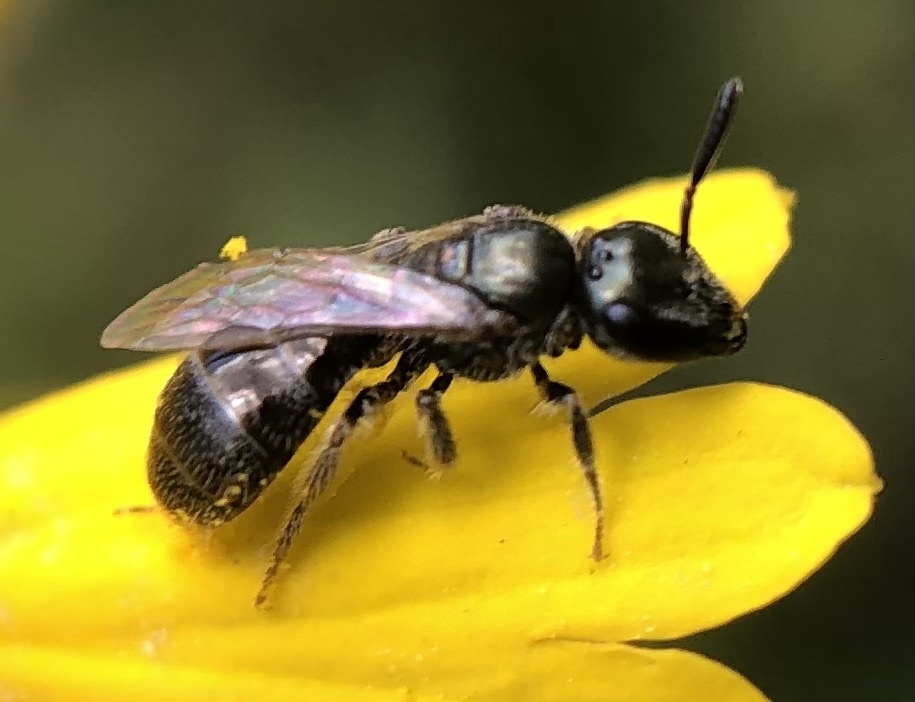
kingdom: Animalia
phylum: Arthropoda
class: Insecta
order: Hymenoptera
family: Halictidae
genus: Lasioglossum
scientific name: Lasioglossum imitatum
